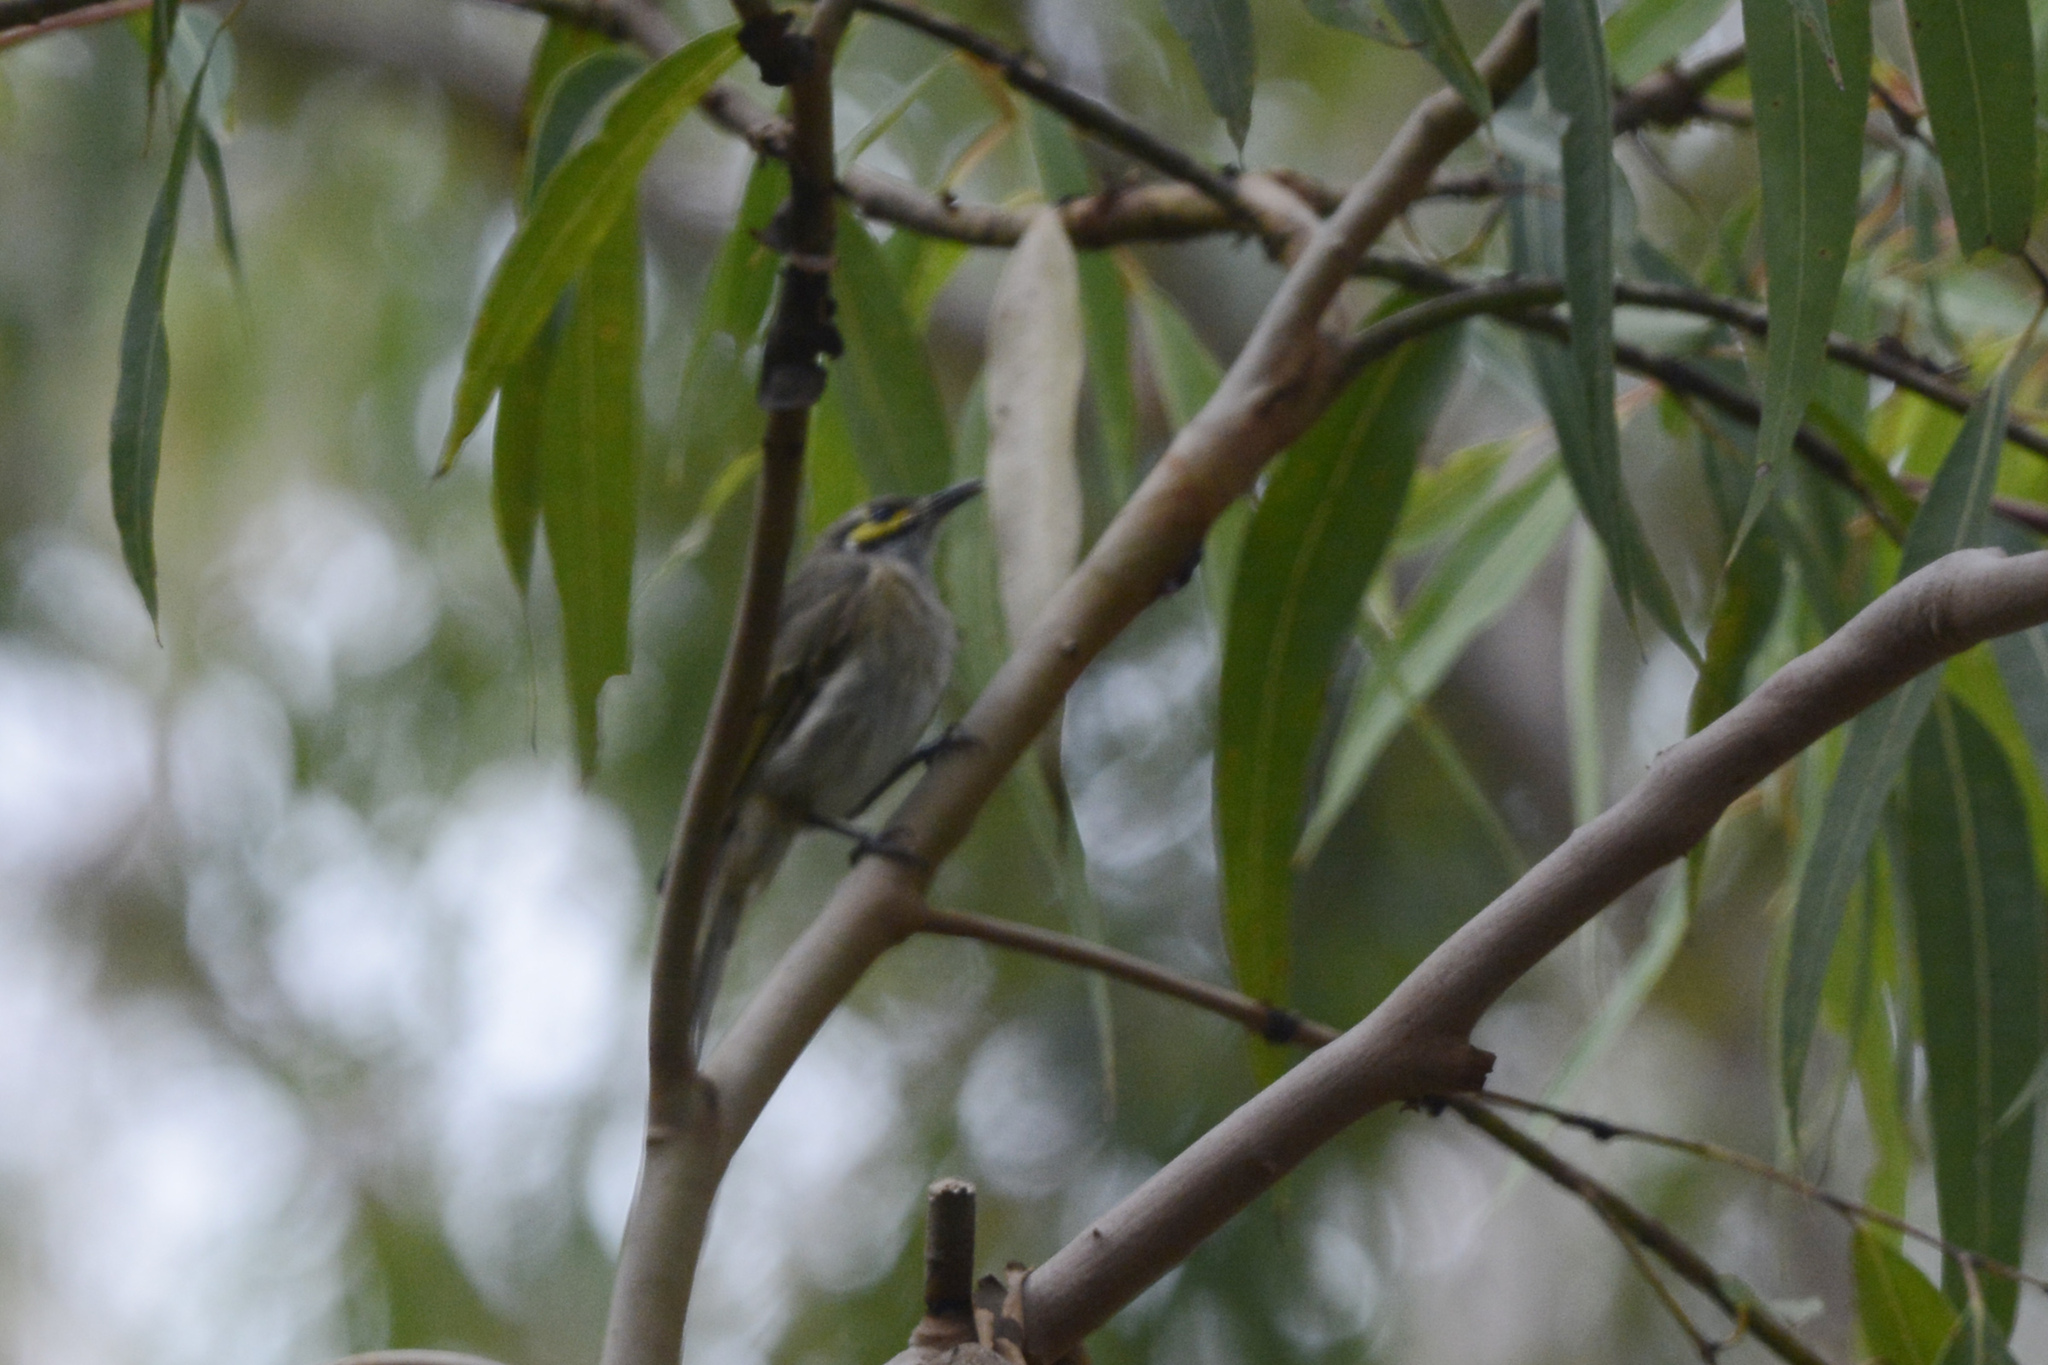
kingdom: Animalia
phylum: Chordata
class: Aves
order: Passeriformes
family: Meliphagidae
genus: Caligavis
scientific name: Caligavis chrysops
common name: Yellow-faced honeyeater
